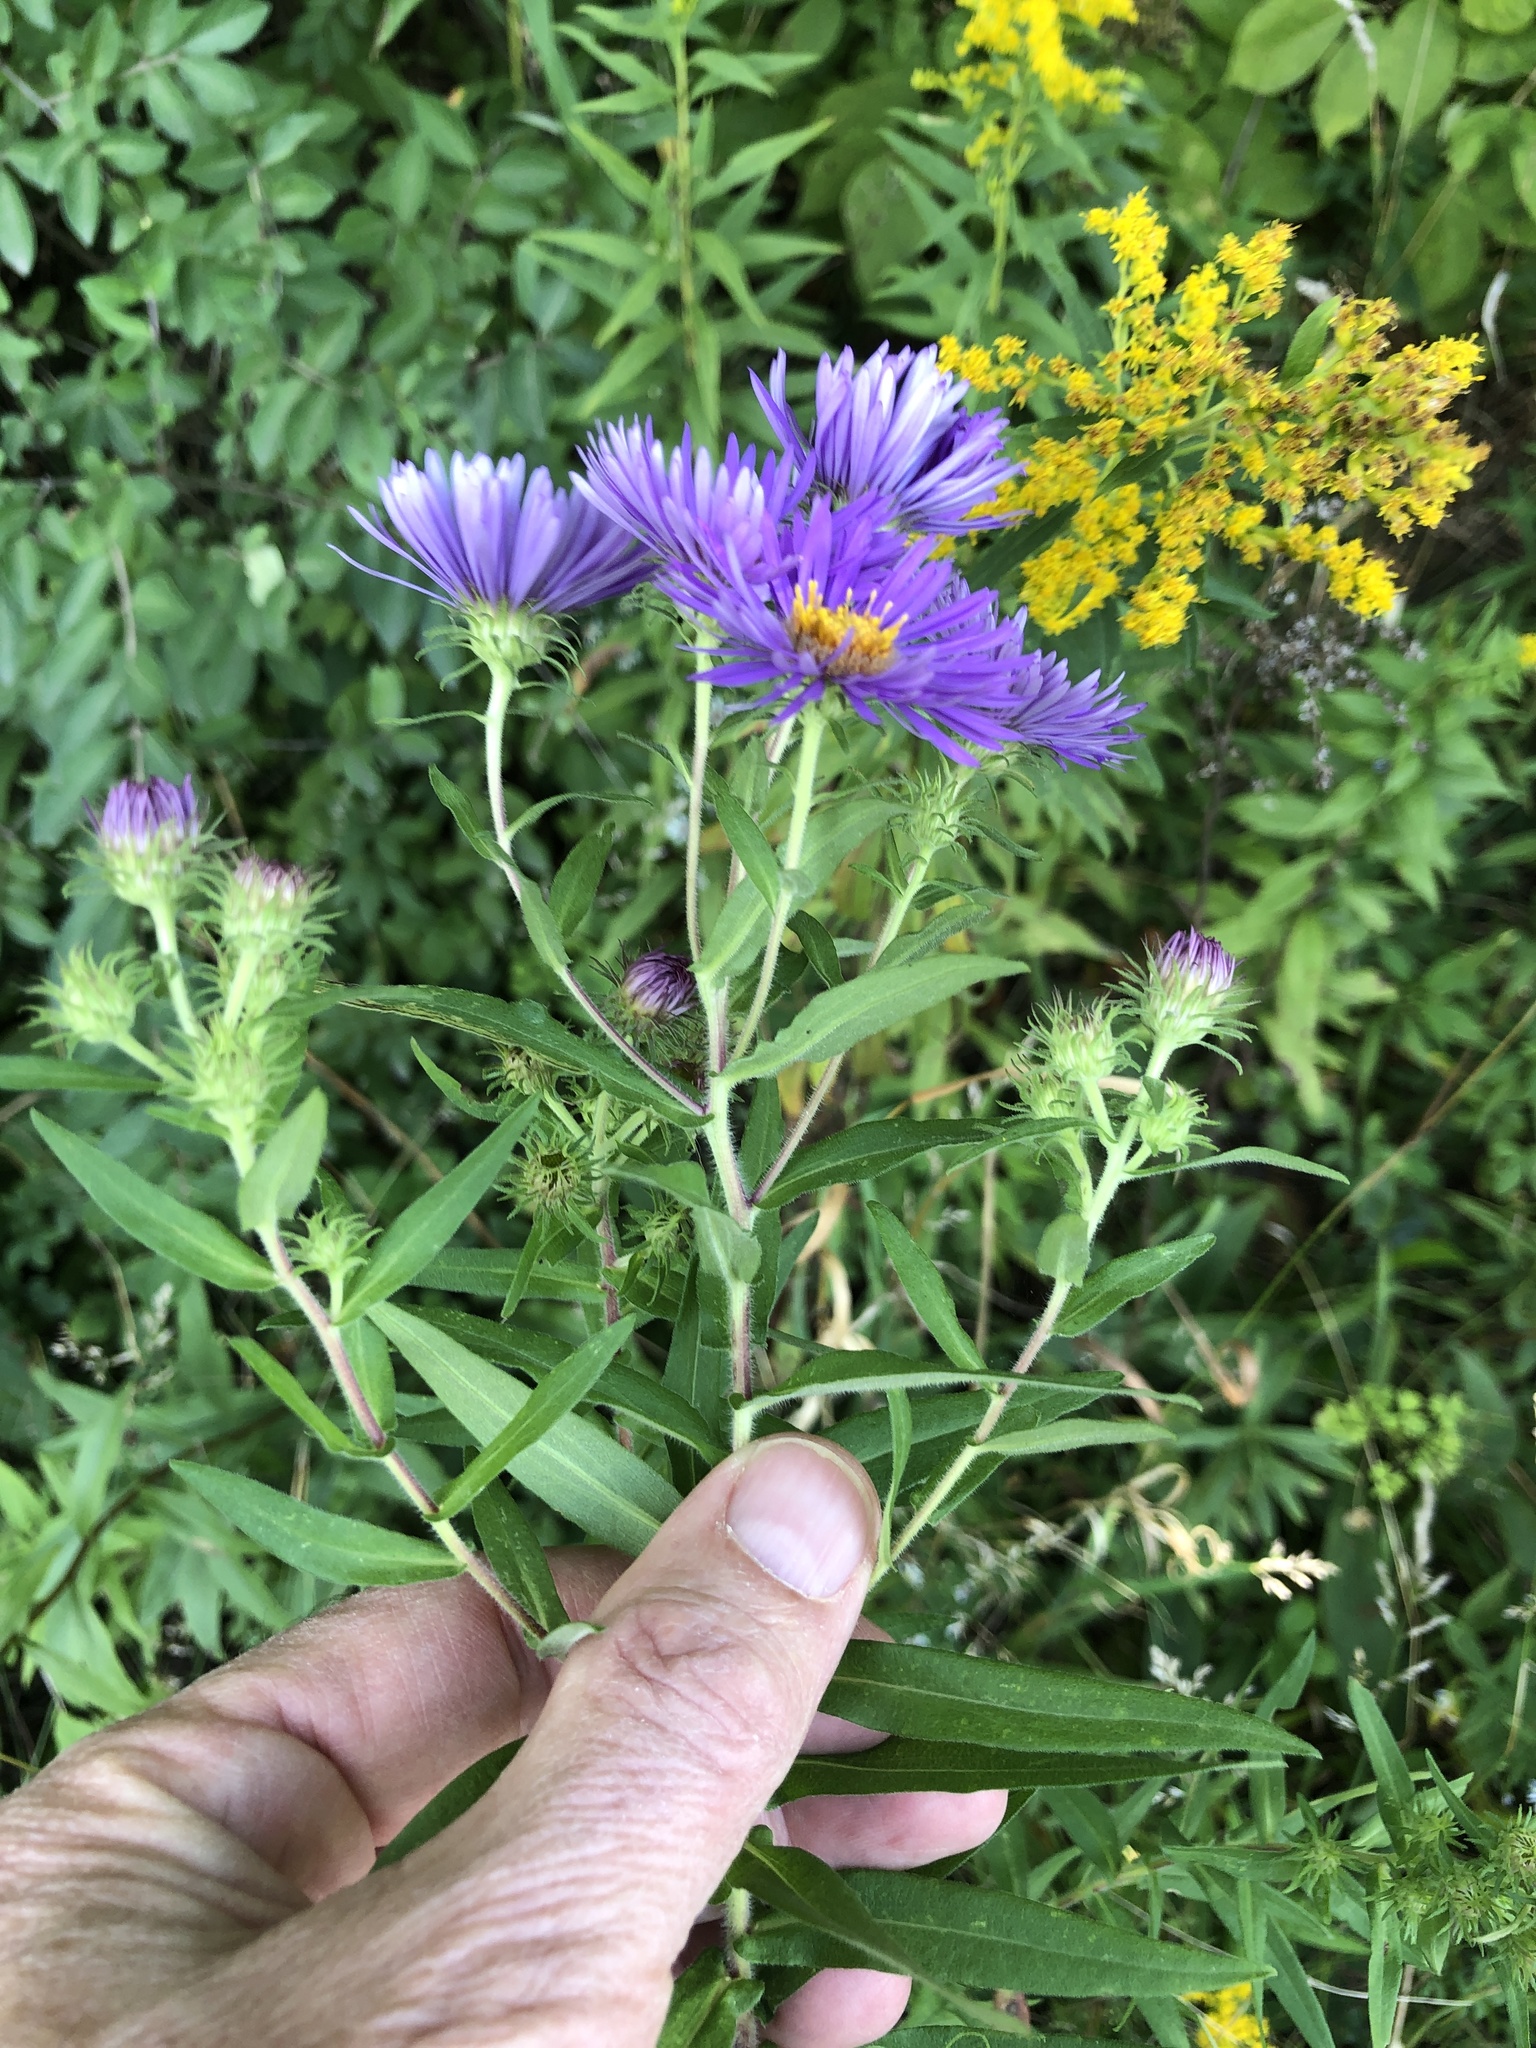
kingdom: Plantae
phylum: Tracheophyta
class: Magnoliopsida
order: Asterales
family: Asteraceae
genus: Symphyotrichum
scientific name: Symphyotrichum novae-angliae
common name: Michaelmas daisy
